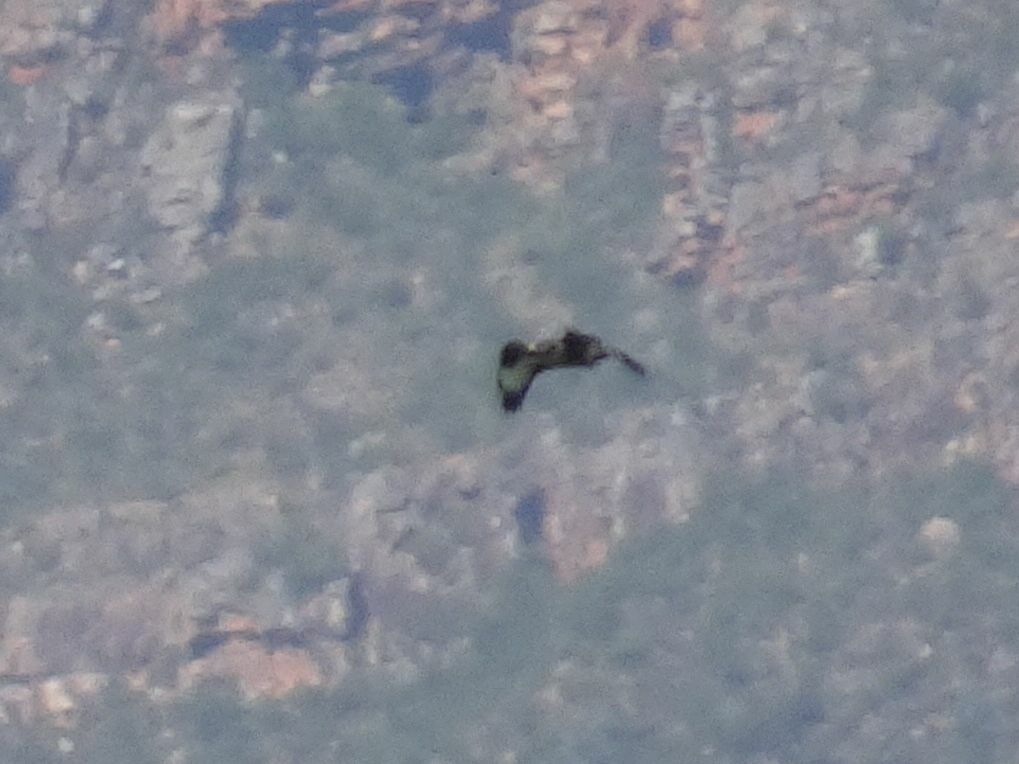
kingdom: Animalia
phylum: Chordata
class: Aves
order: Accipitriformes
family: Accipitridae
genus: Buteo
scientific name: Buteo rufofuscus
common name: Jackal buzzard
